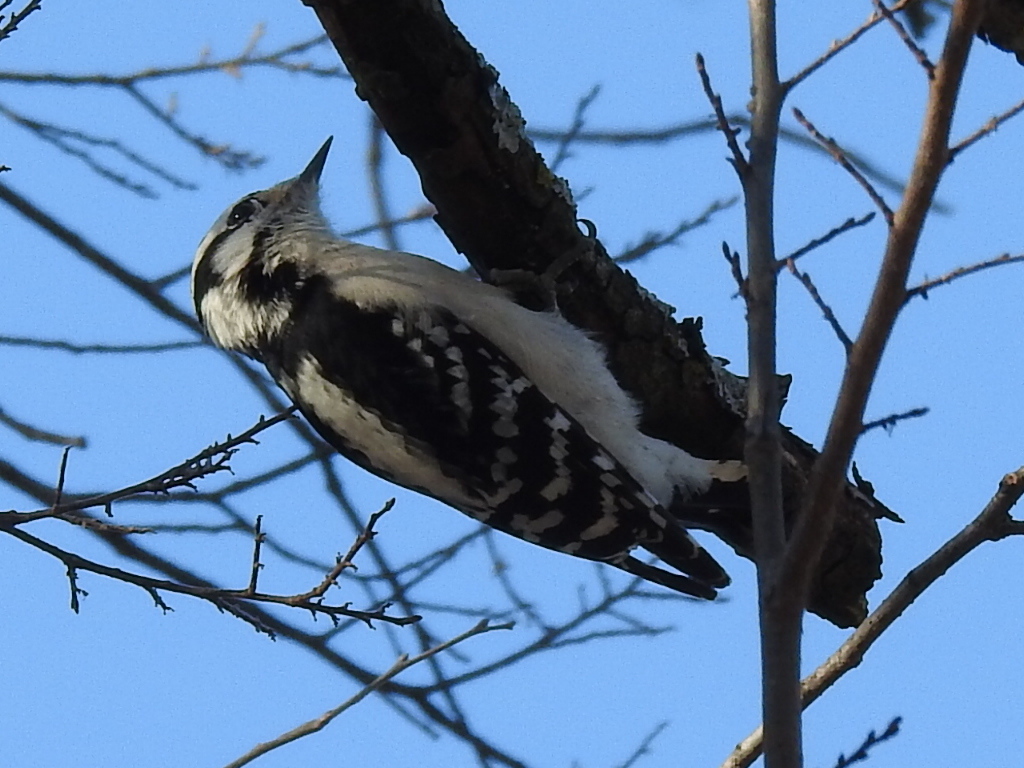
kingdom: Animalia
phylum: Chordata
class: Aves
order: Piciformes
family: Picidae
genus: Dryobates
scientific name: Dryobates pubescens
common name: Downy woodpecker
